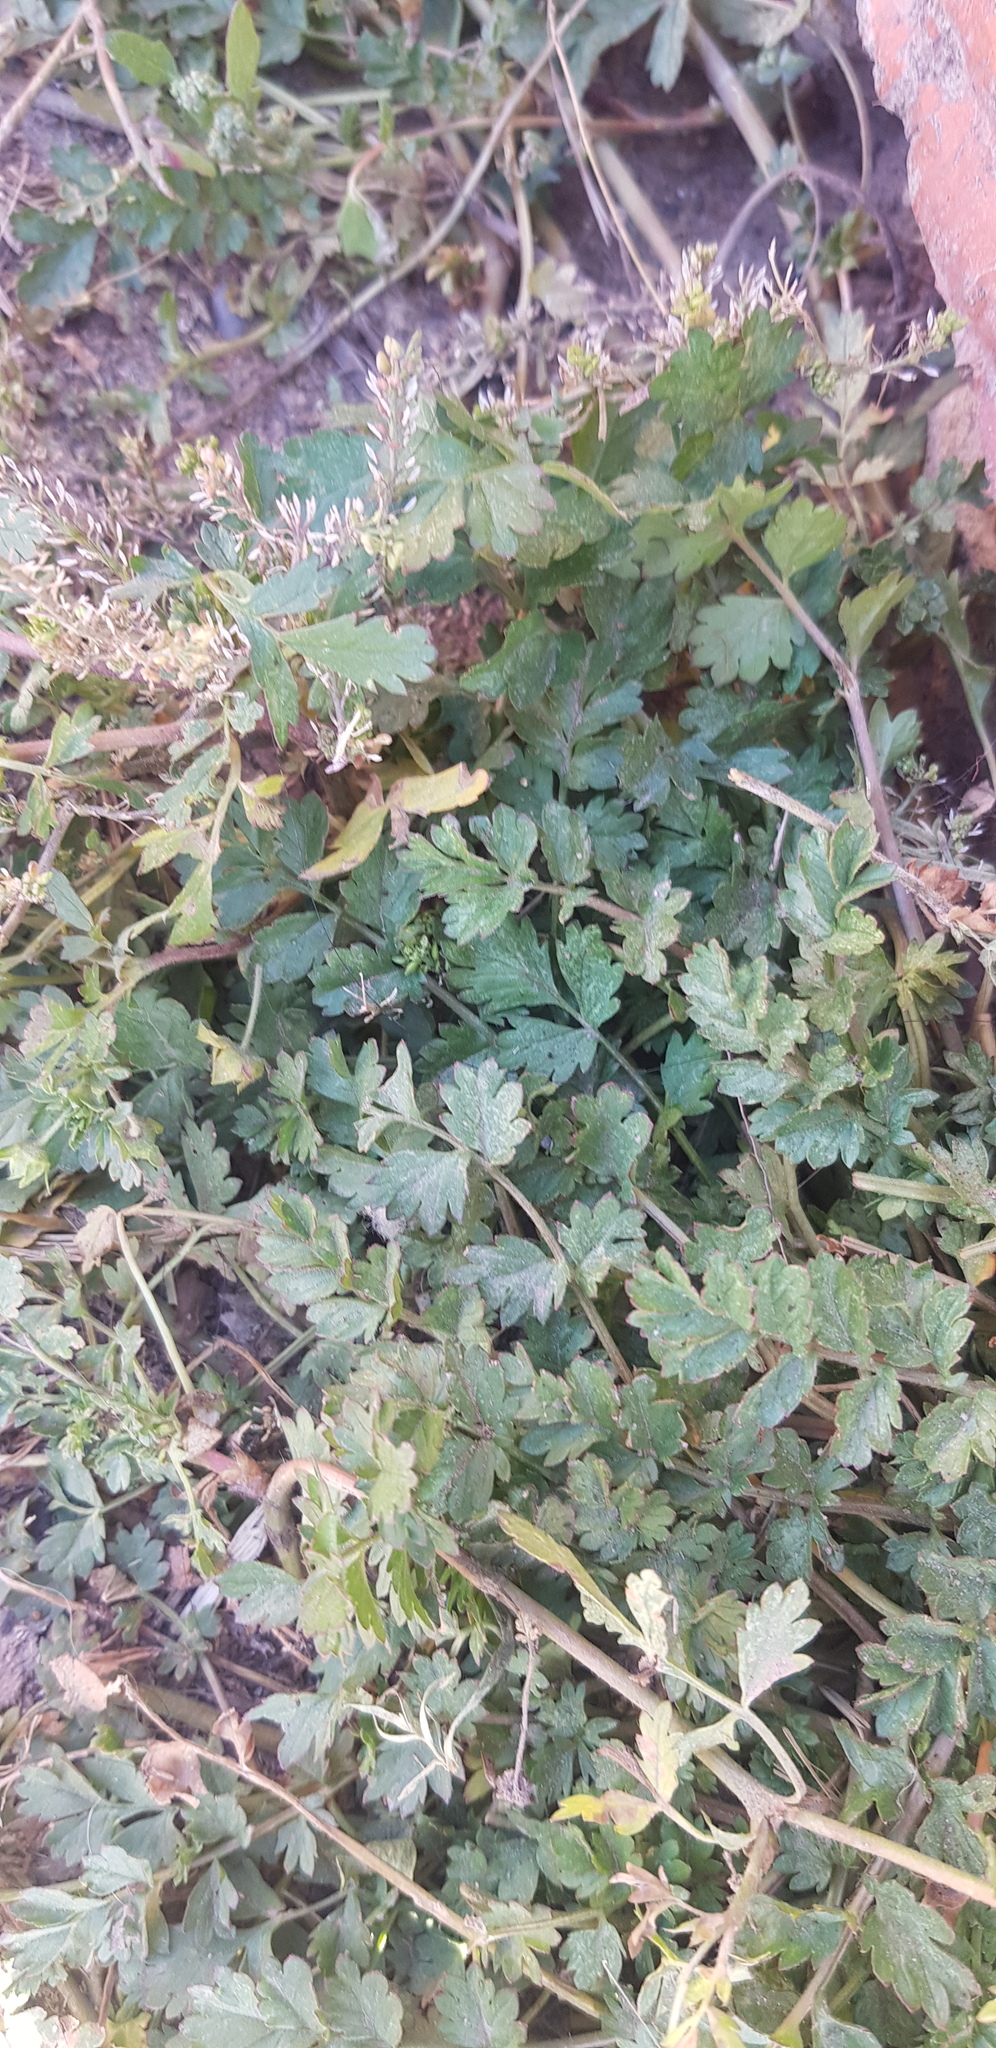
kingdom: Plantae
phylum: Tracheophyta
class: Magnoliopsida
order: Rosales
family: Rosaceae
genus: Potentilla
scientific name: Potentilla supina
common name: Prostrate cinquefoil
